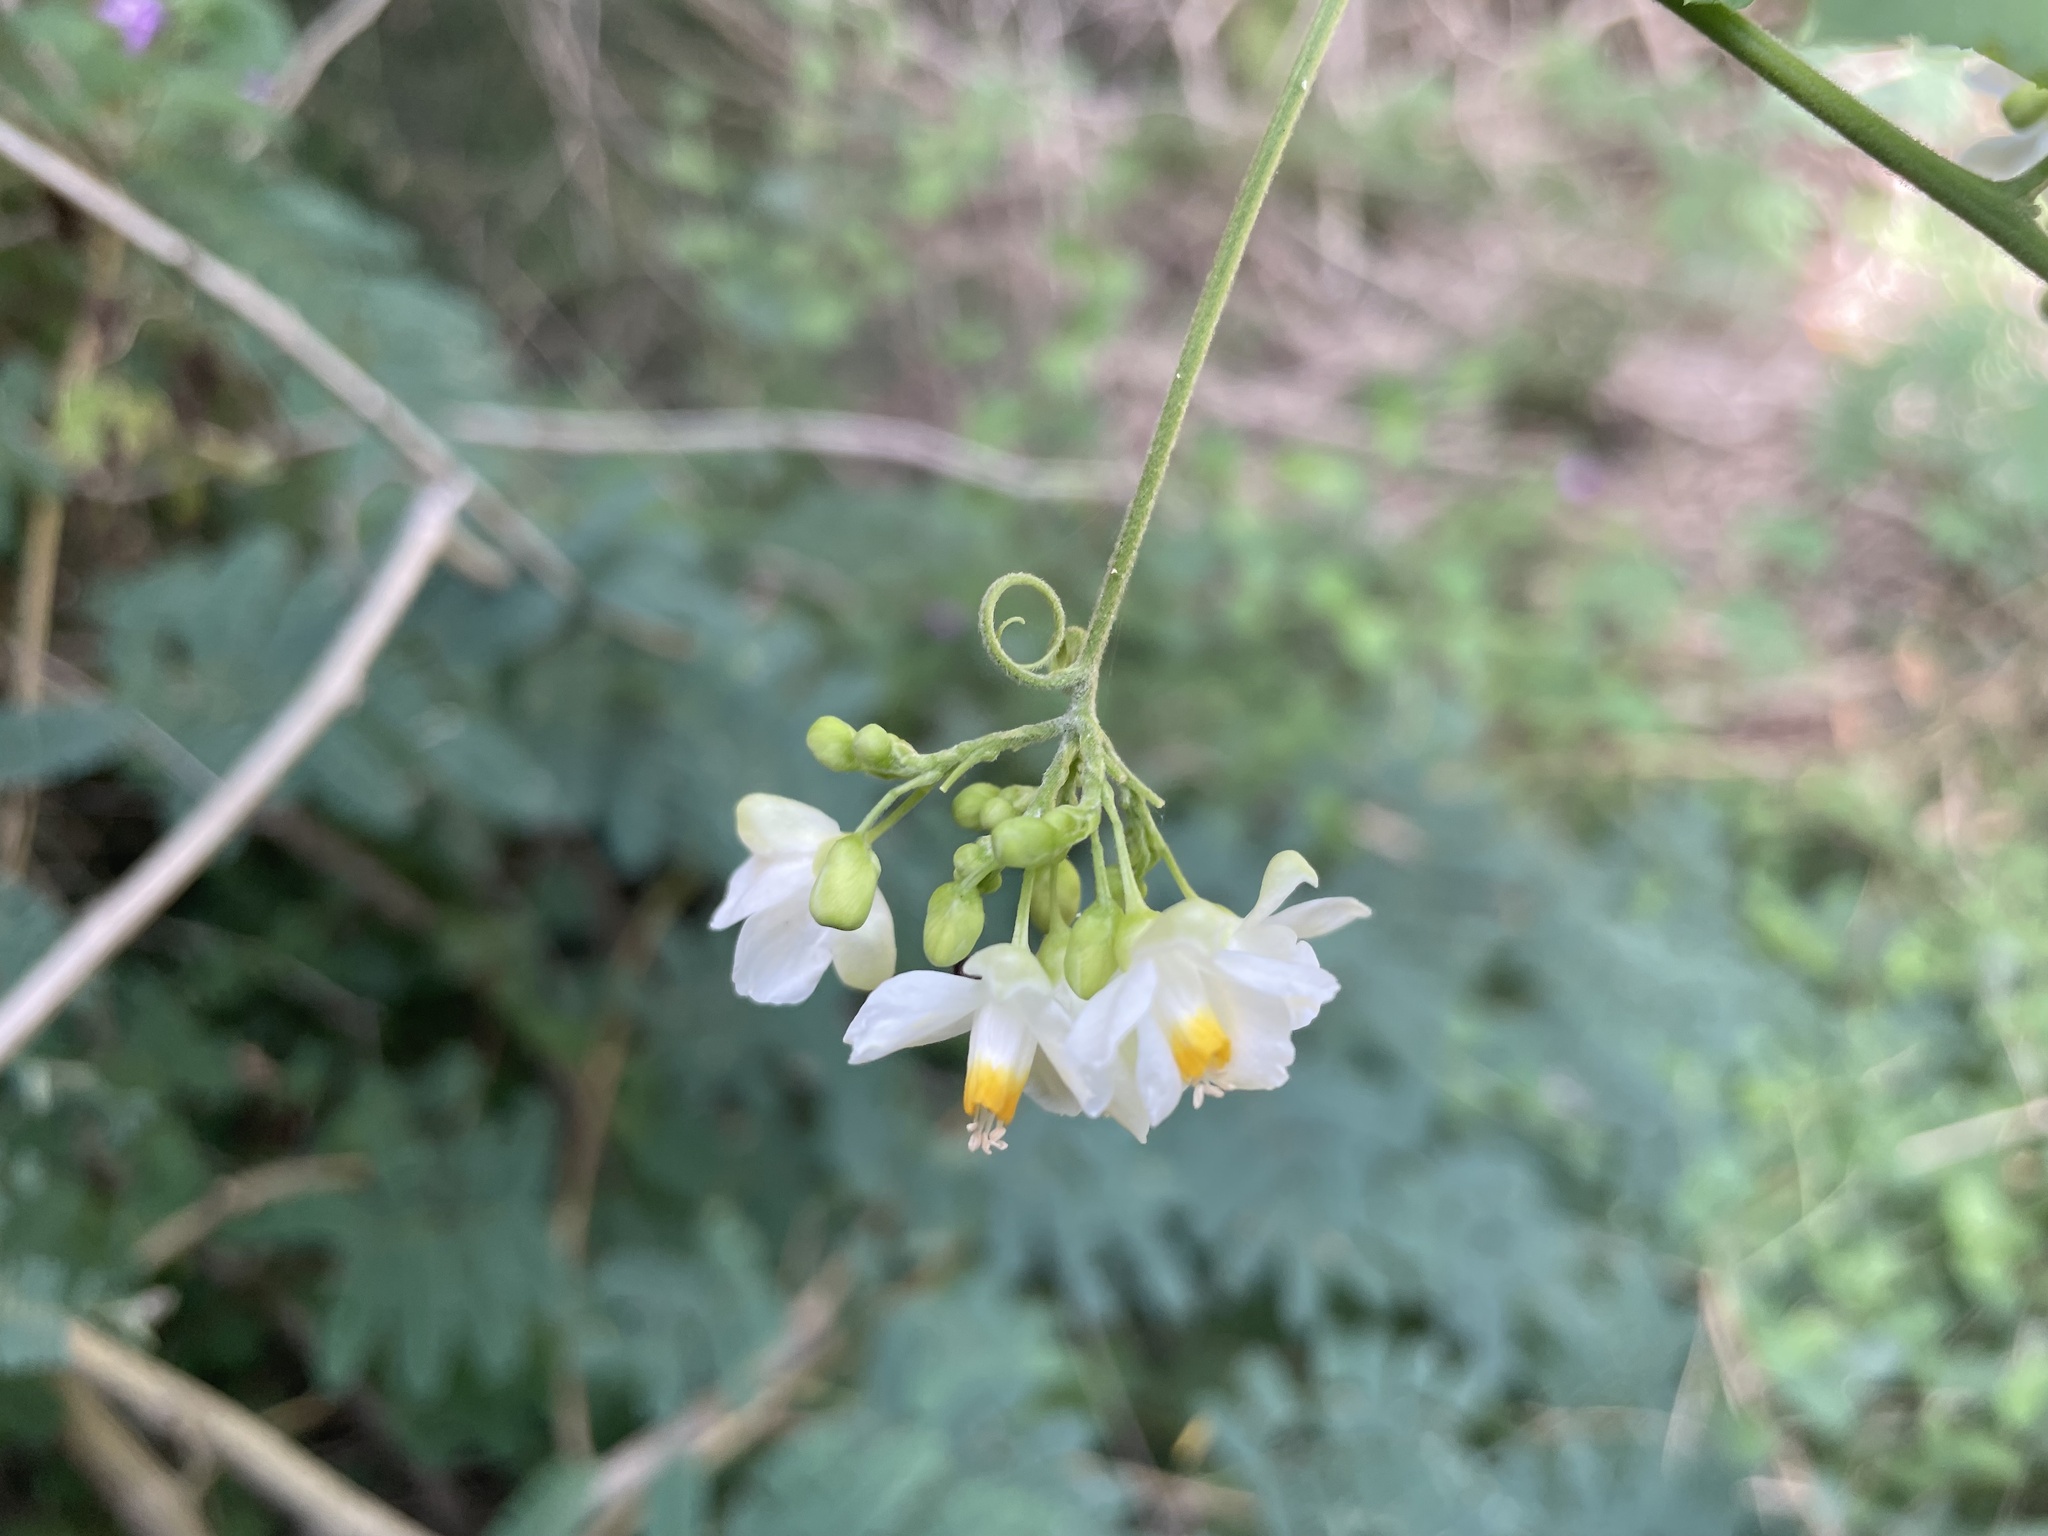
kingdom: Plantae
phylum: Tracheophyta
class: Magnoliopsida
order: Sapindales
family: Sapindaceae
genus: Cardiospermum
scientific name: Cardiospermum grandiflorum
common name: Balloon vine
